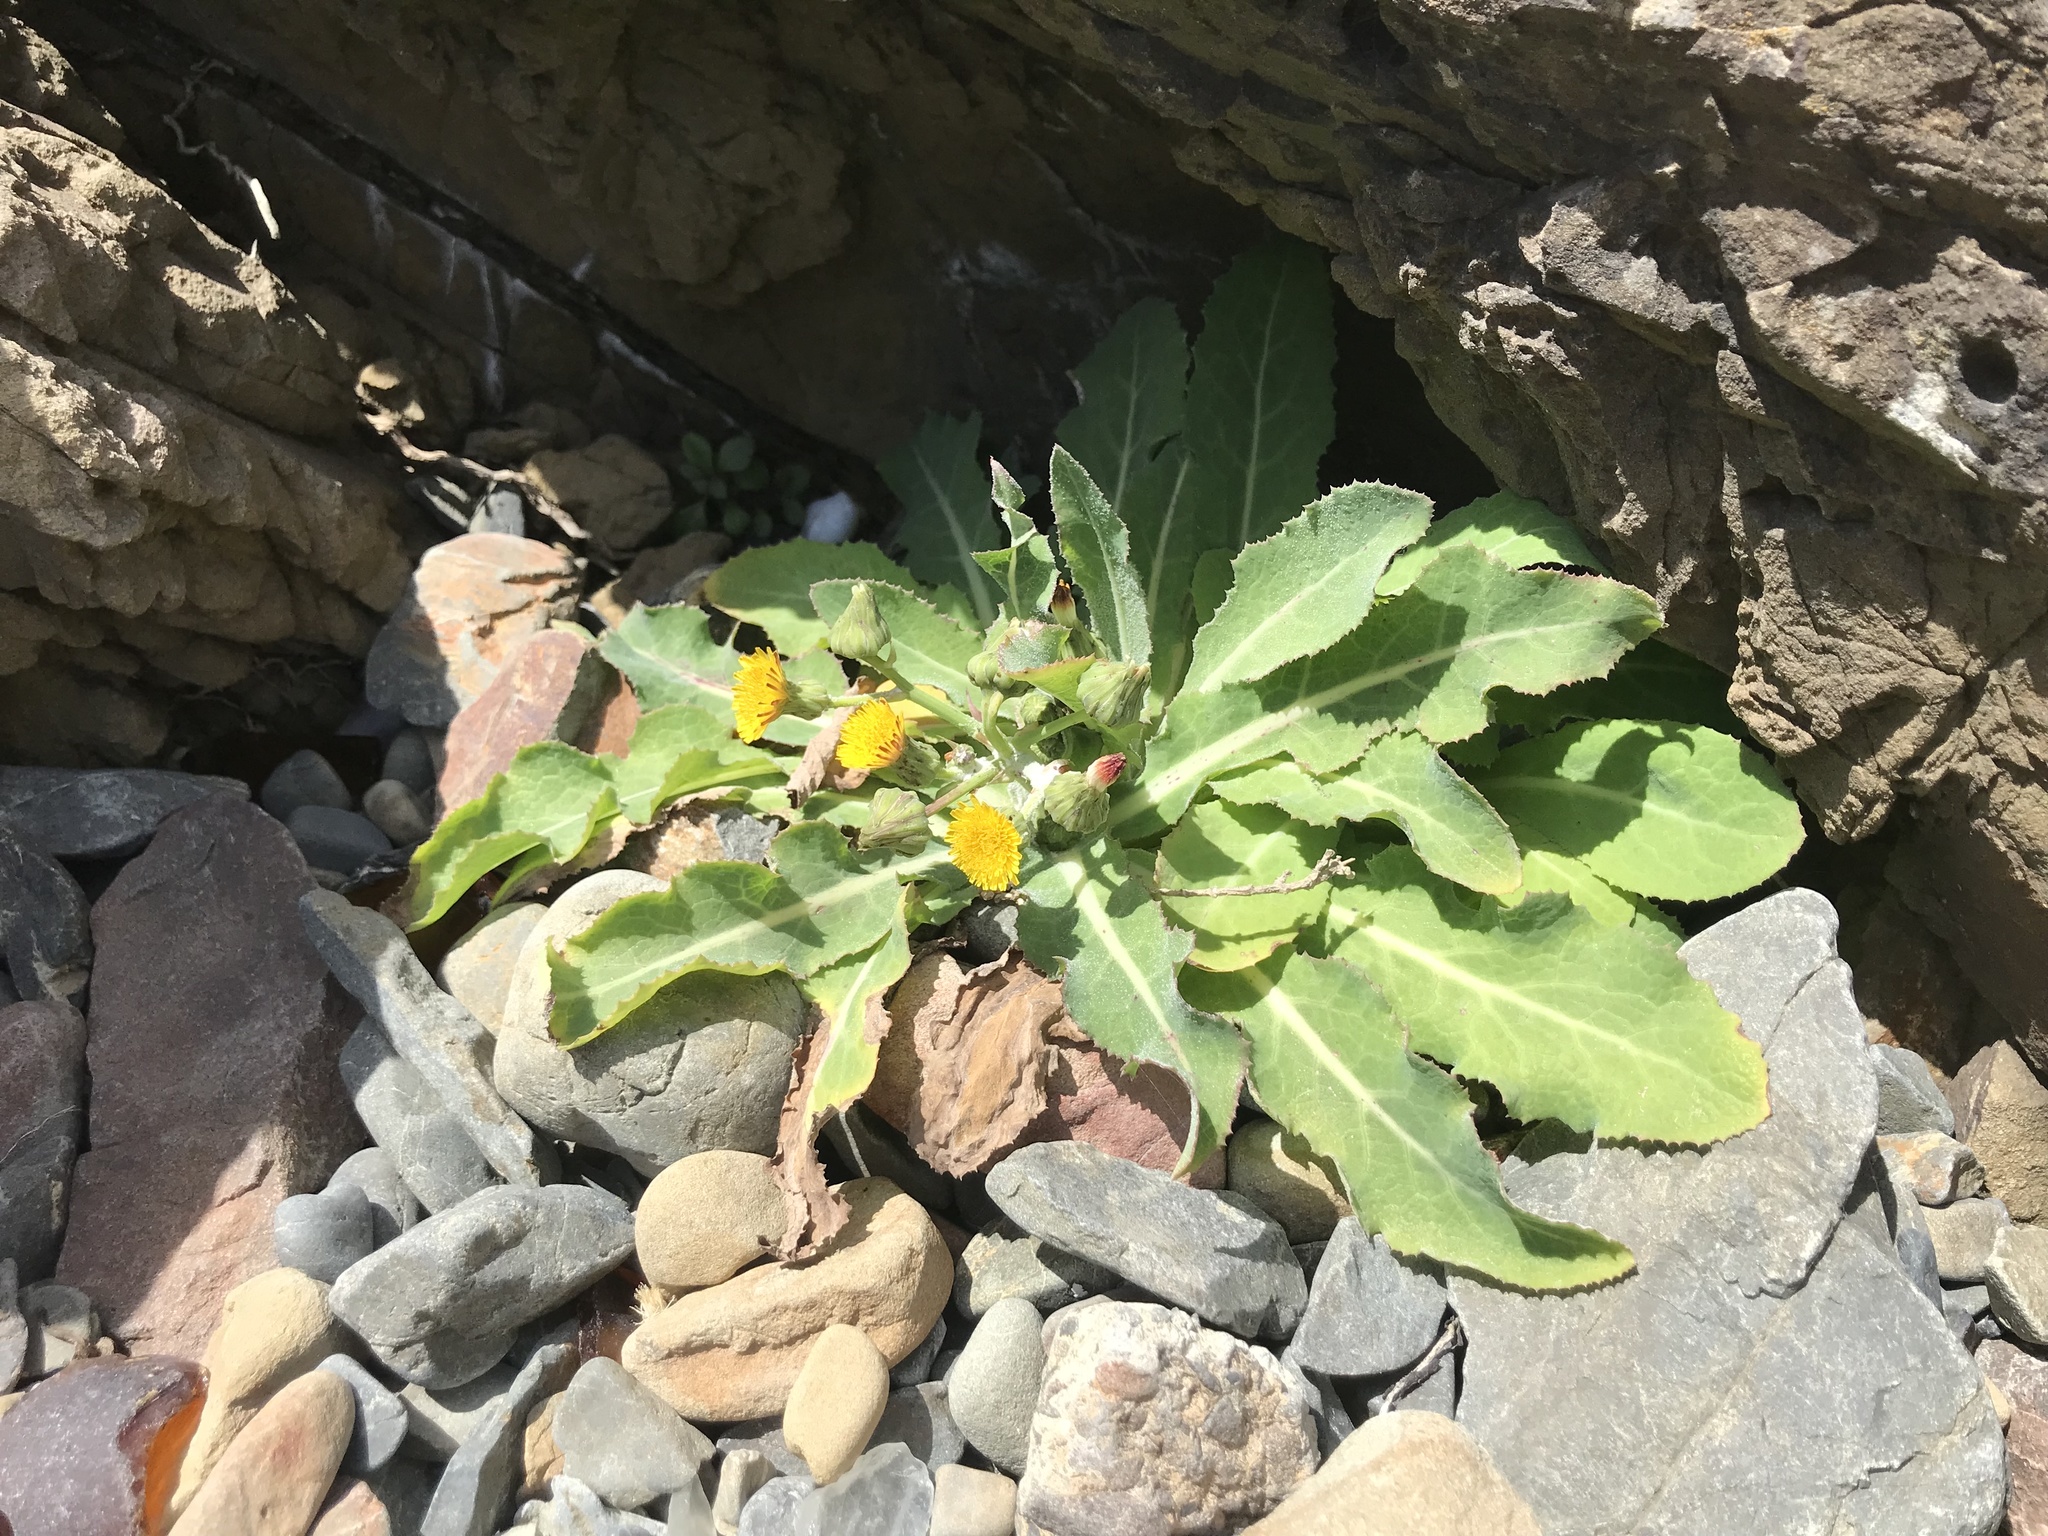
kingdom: Plantae
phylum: Tracheophyta
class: Magnoliopsida
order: Asterales
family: Asteraceae
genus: Sonchus
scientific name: Sonchus kirkii
